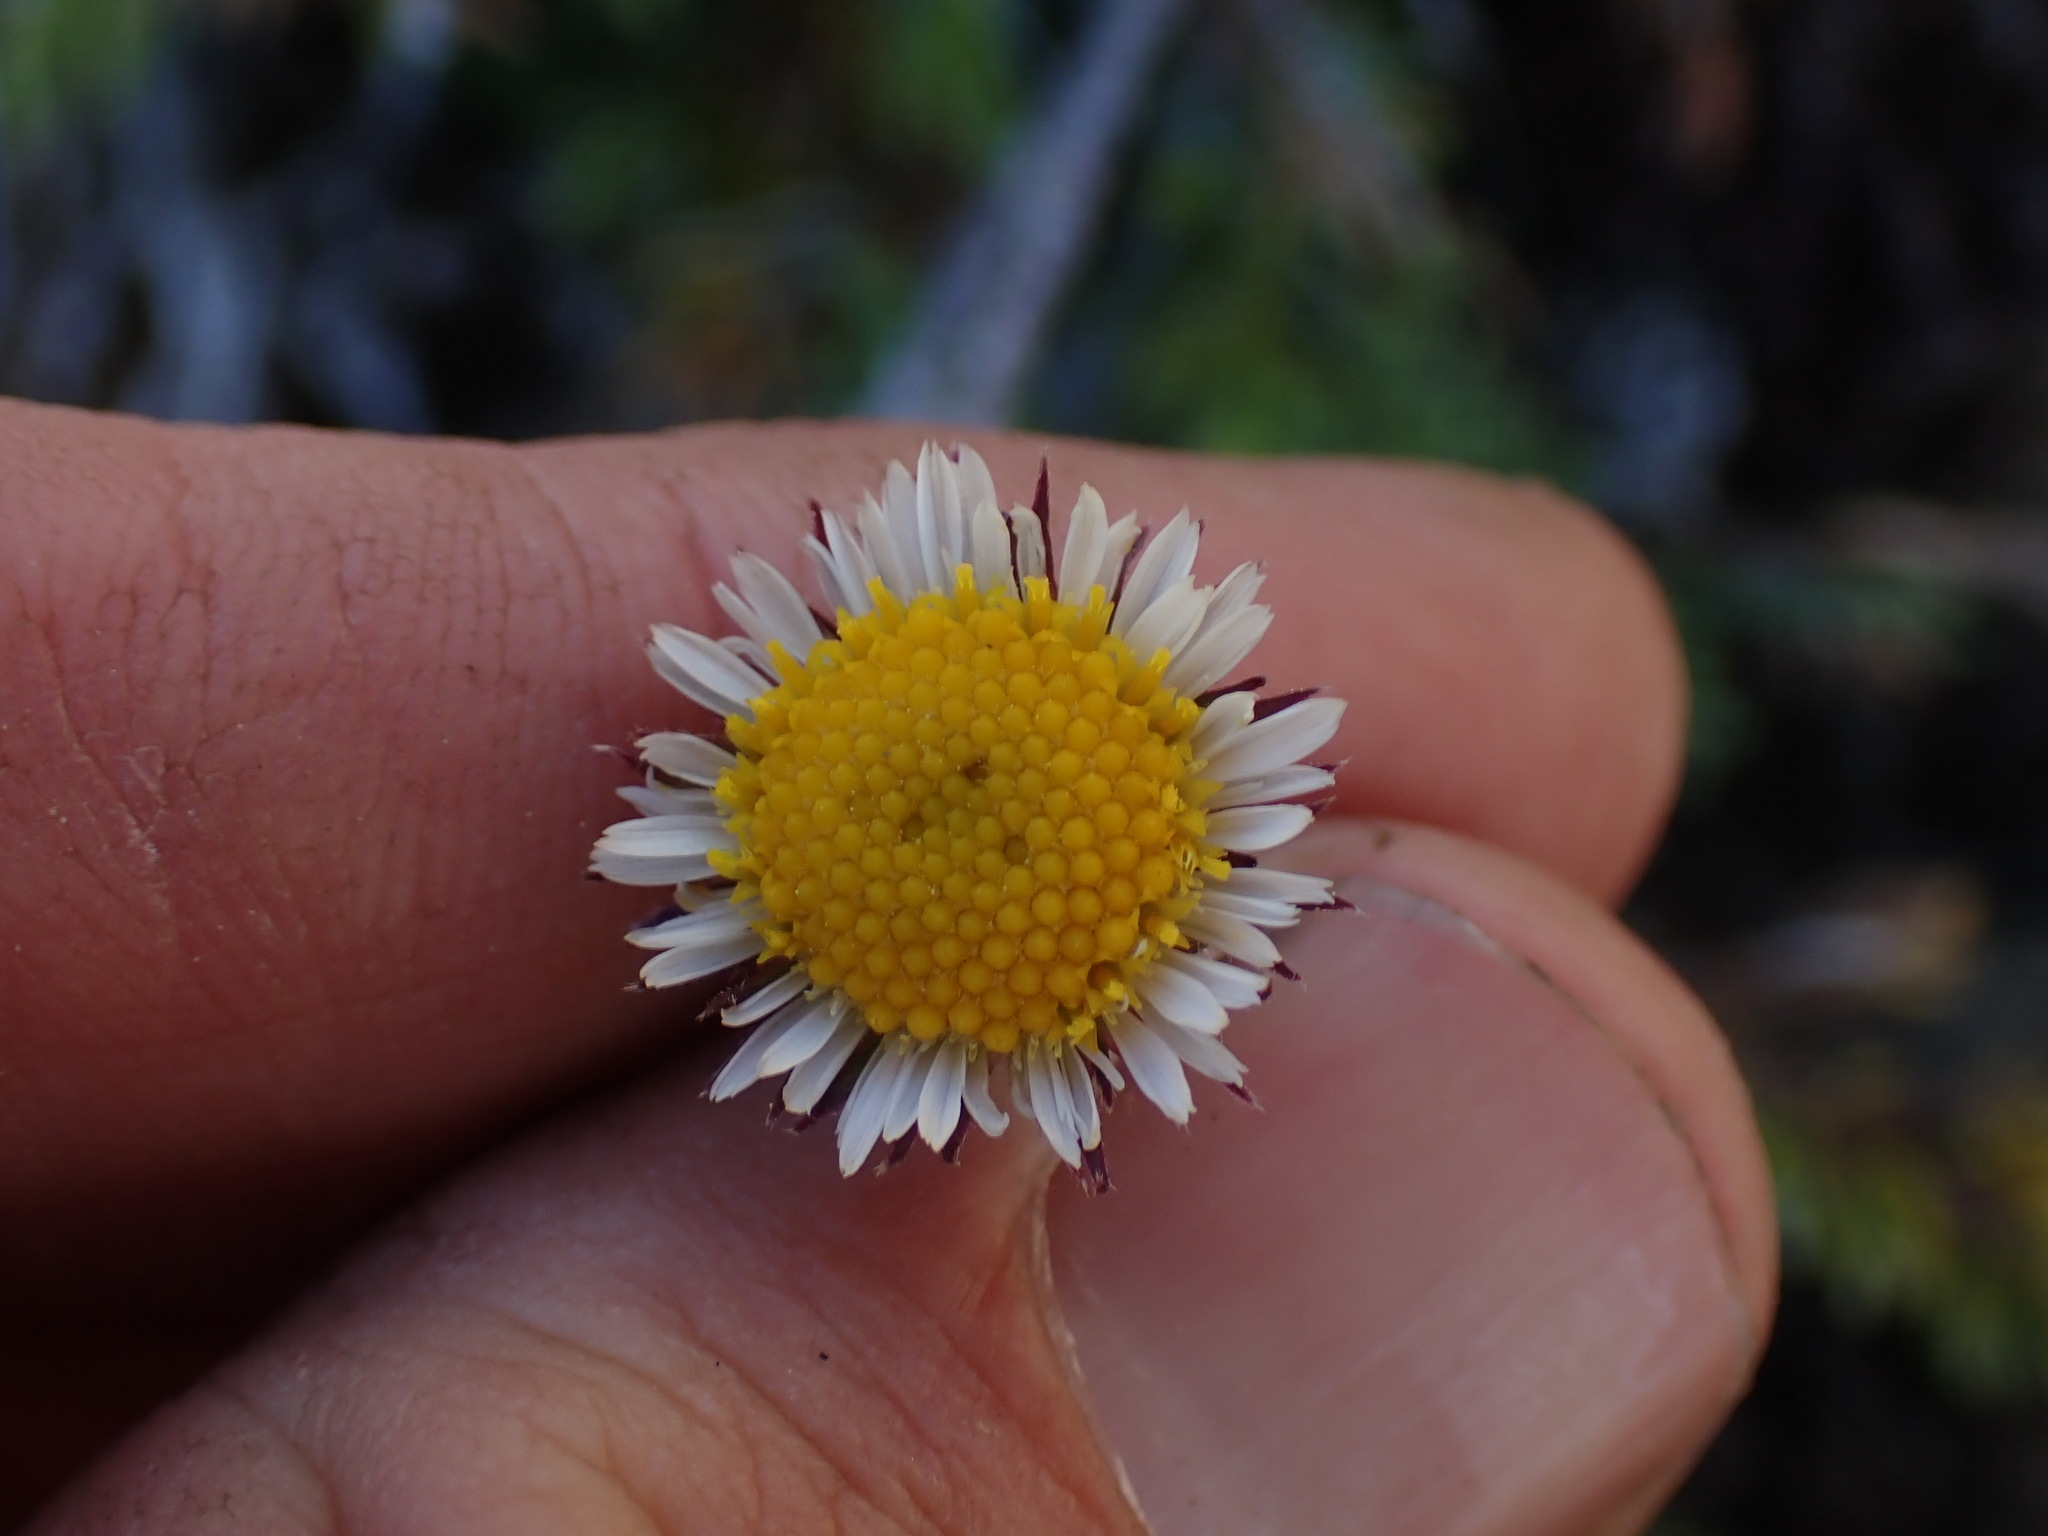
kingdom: Plantae
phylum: Tracheophyta
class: Magnoliopsida
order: Asterales
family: Asteraceae
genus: Erigeron
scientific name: Erigeron compositus
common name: Dwarf mountain fleabane
